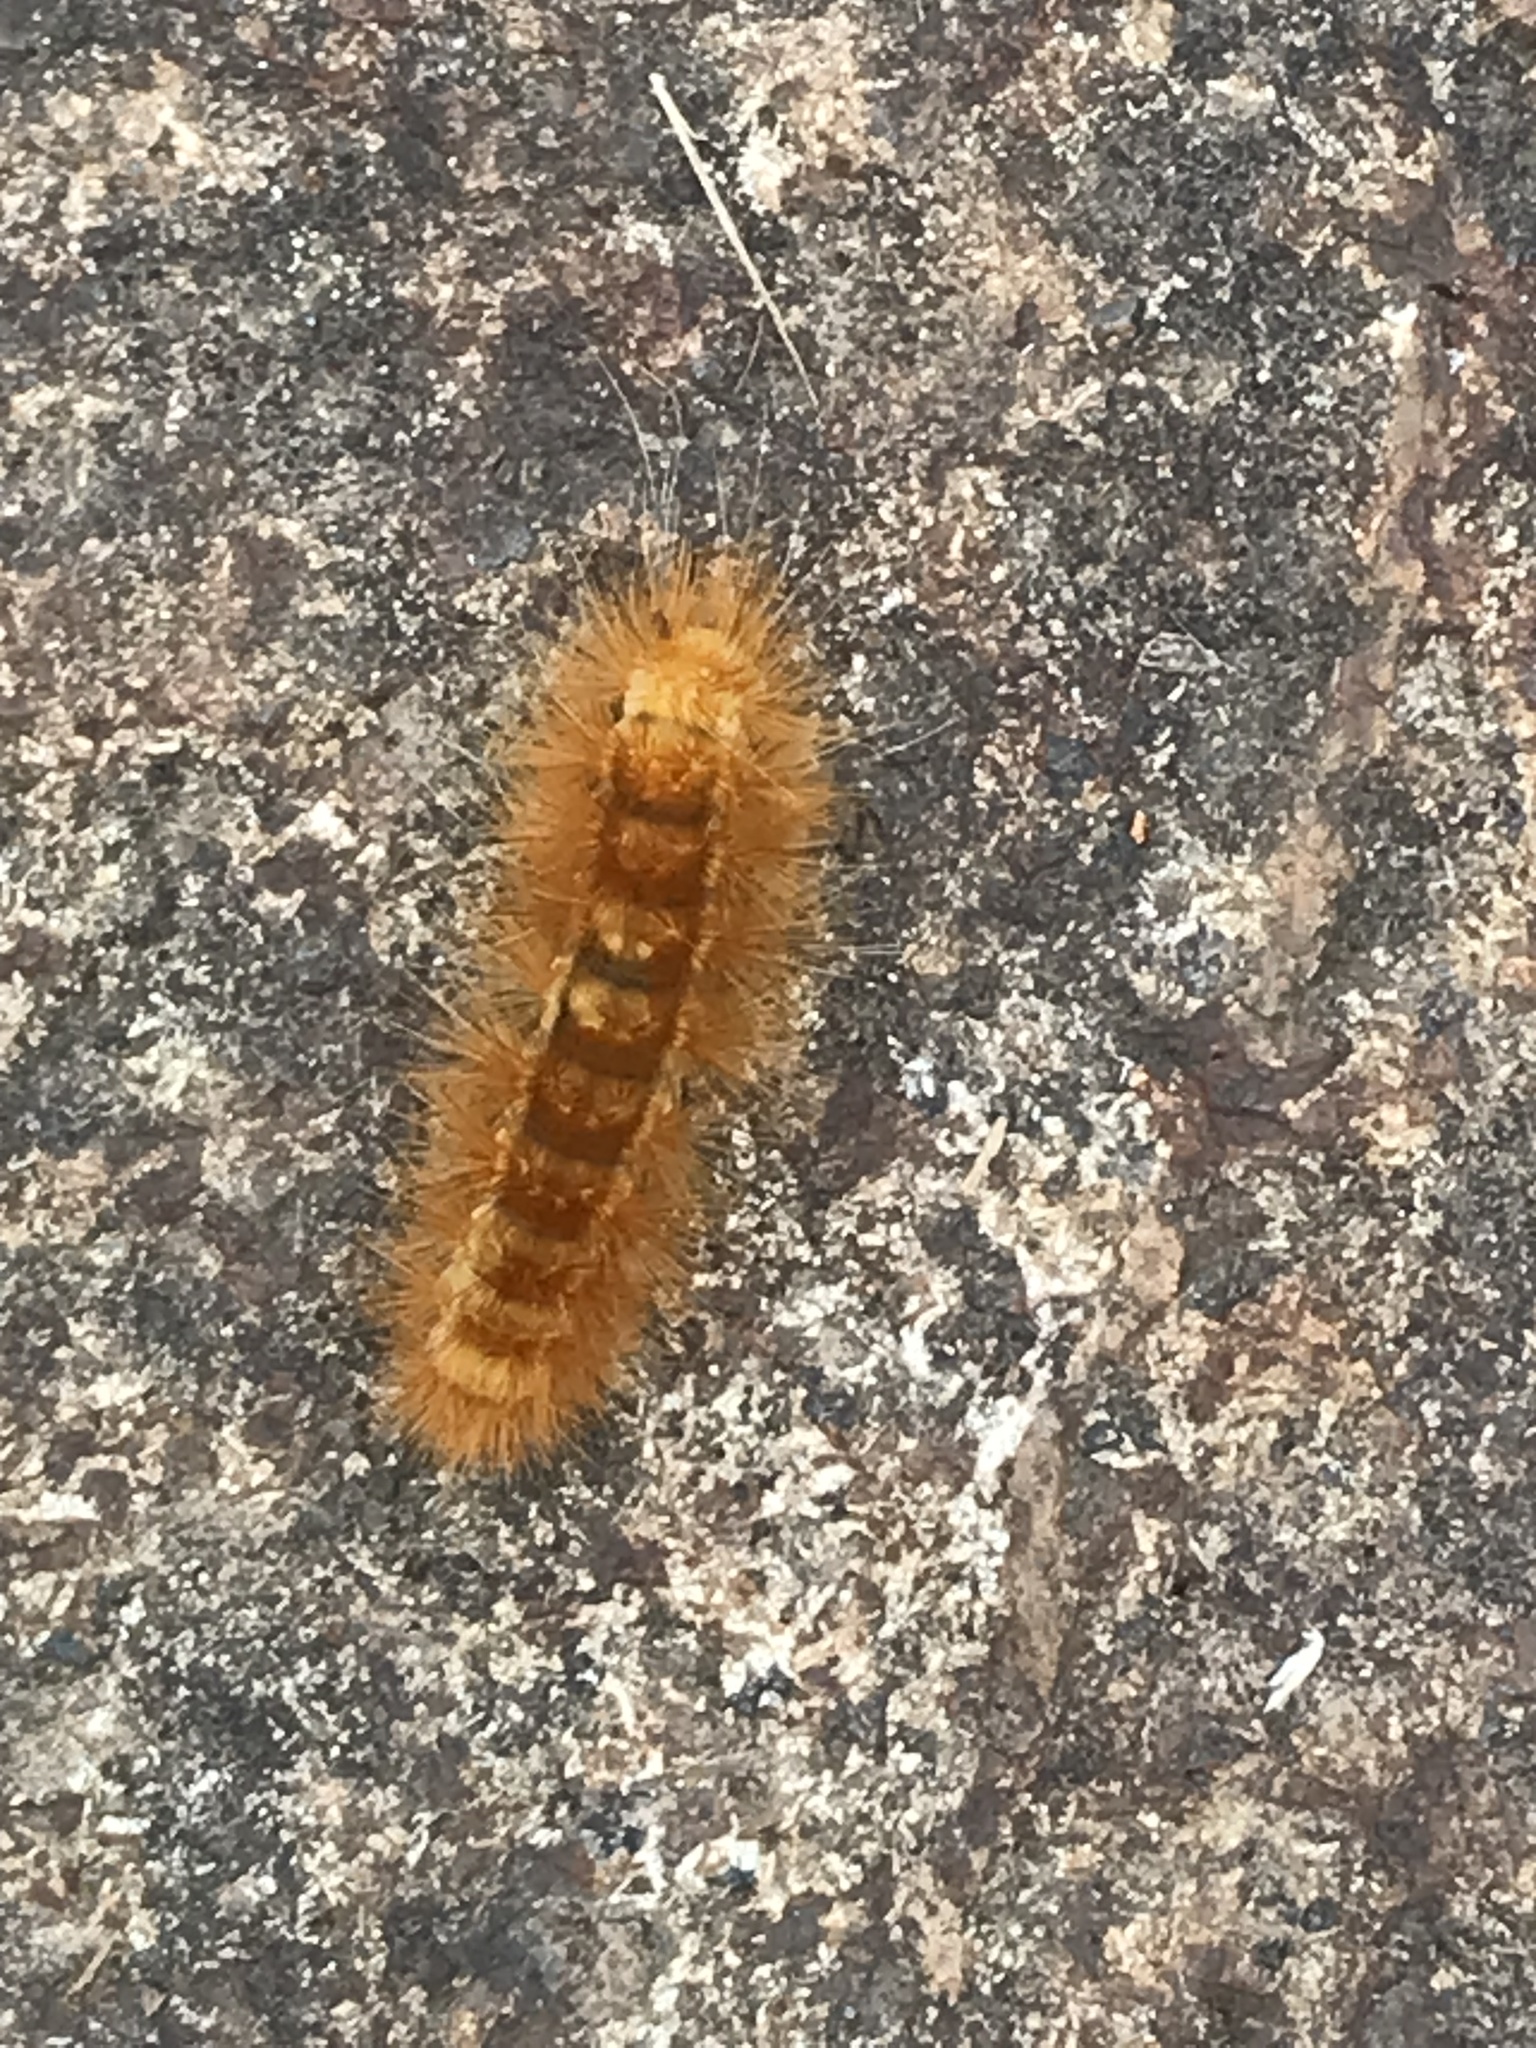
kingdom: Animalia
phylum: Arthropoda
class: Insecta
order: Lepidoptera
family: Erebidae
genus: Spilosoma
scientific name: Spilosoma virginica
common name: Virginia tiger moth
